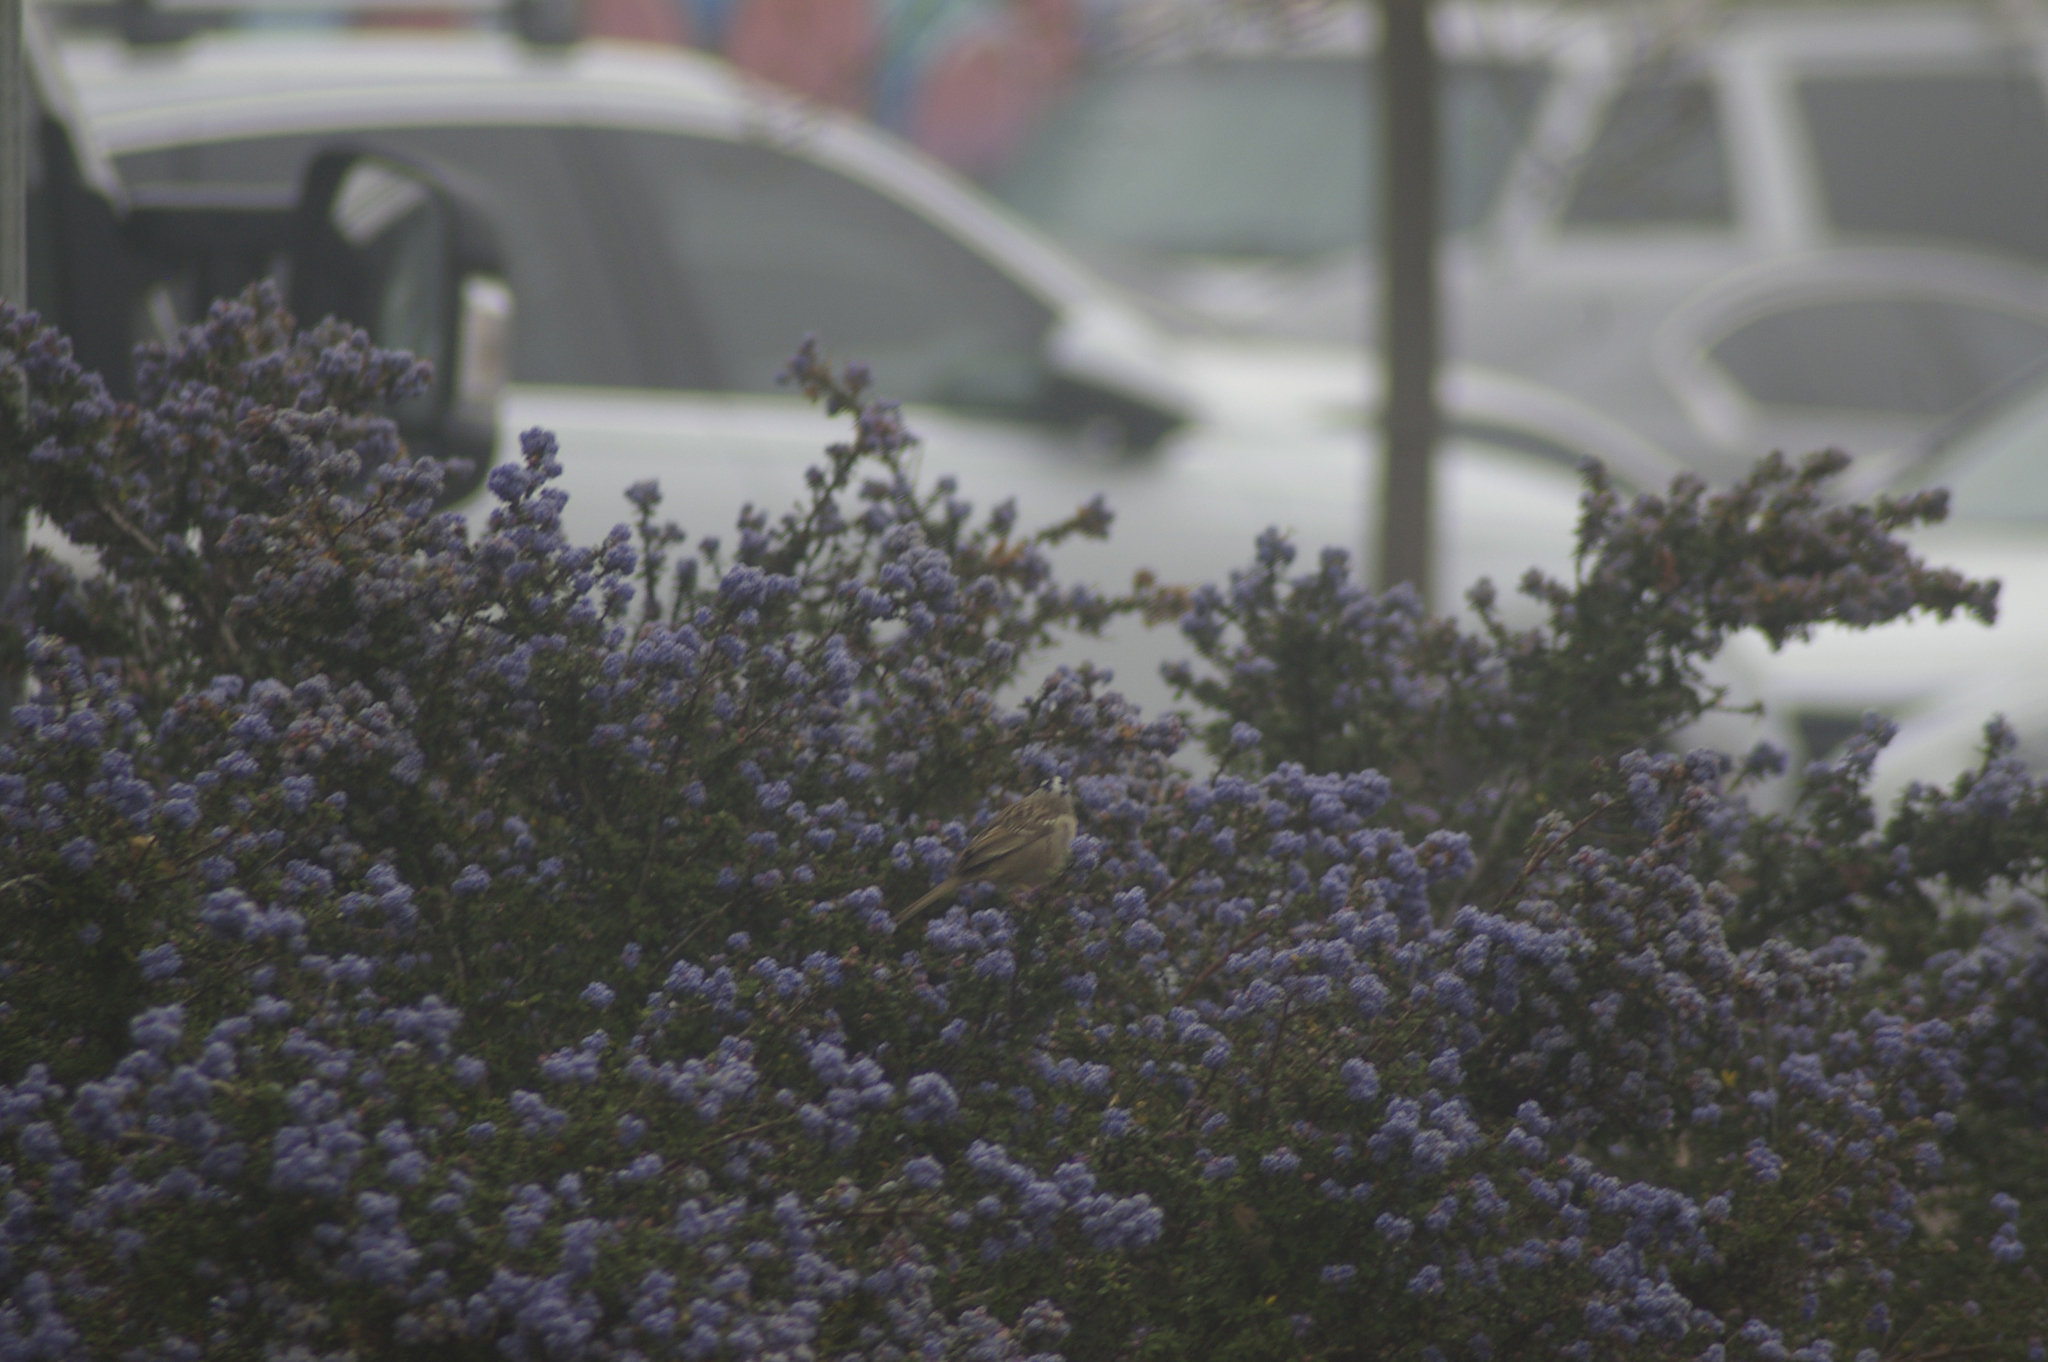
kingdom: Animalia
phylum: Chordata
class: Aves
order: Passeriformes
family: Passerellidae
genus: Zonotrichia
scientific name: Zonotrichia leucophrys
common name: White-crowned sparrow
